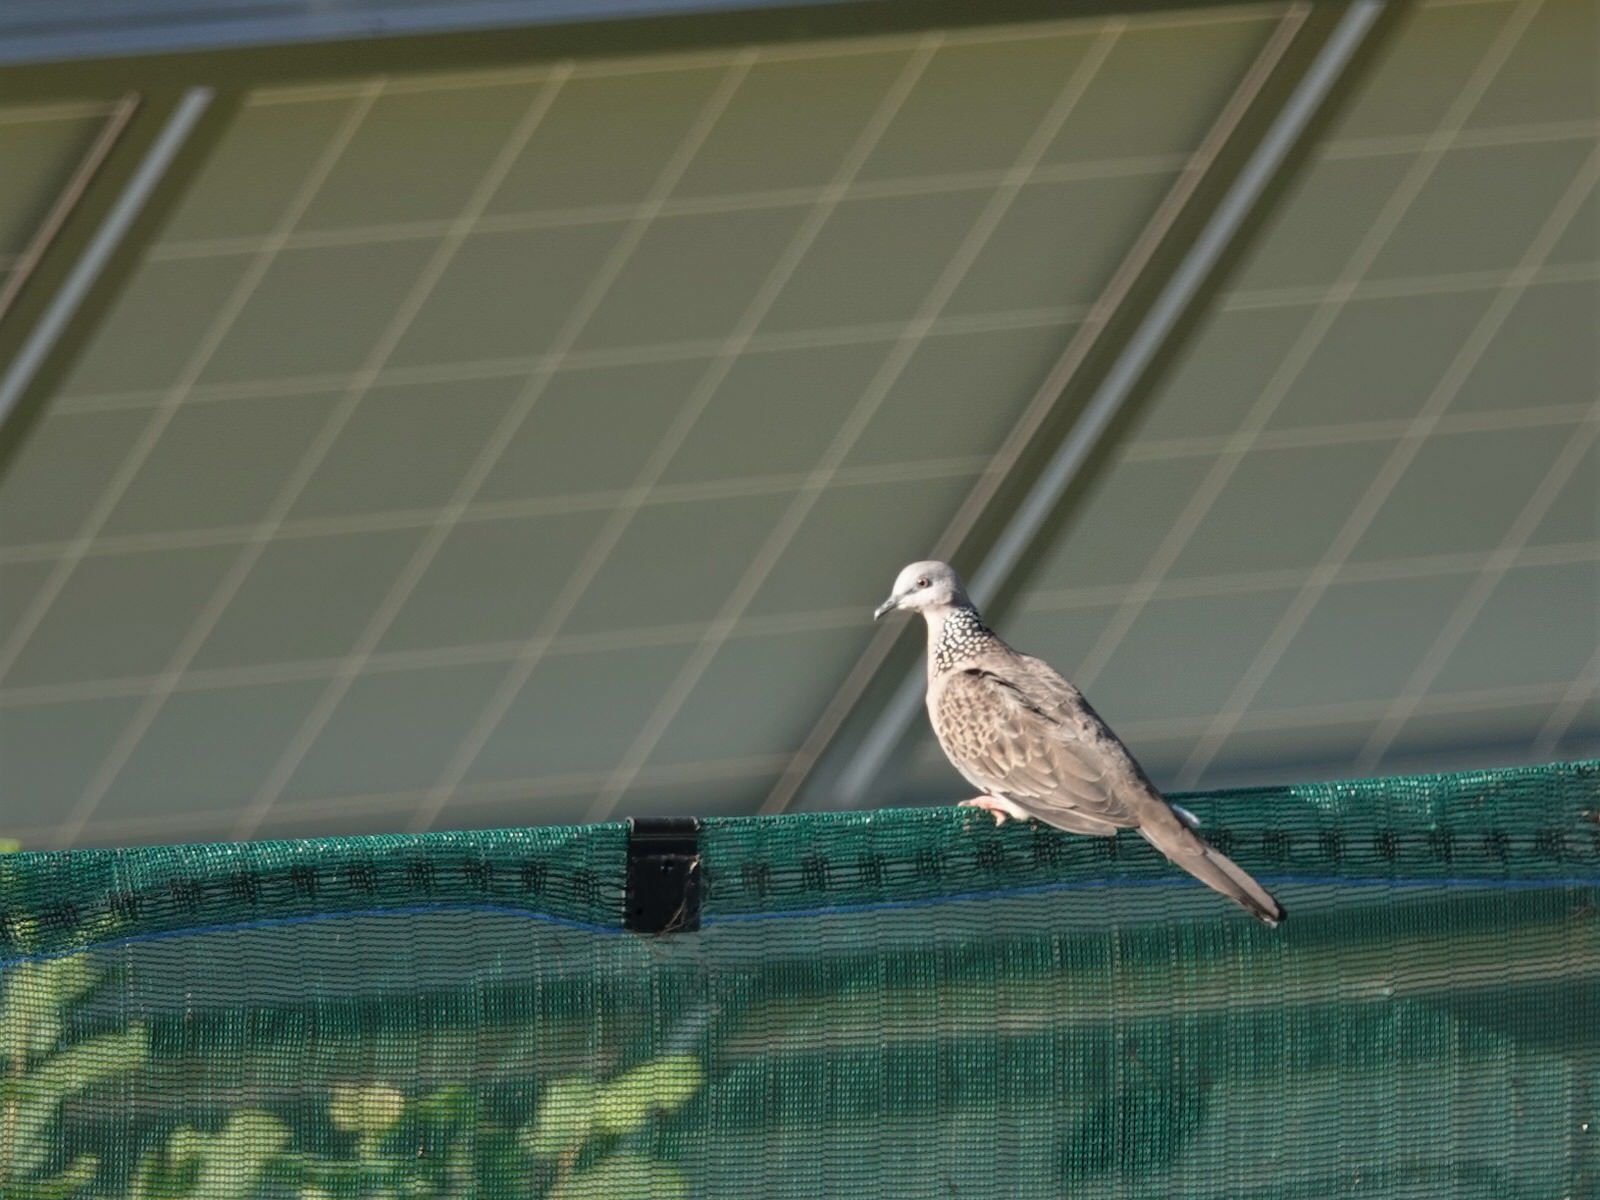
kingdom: Animalia
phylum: Chordata
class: Aves
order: Columbiformes
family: Columbidae
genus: Spilopelia
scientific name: Spilopelia chinensis
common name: Spotted dove
